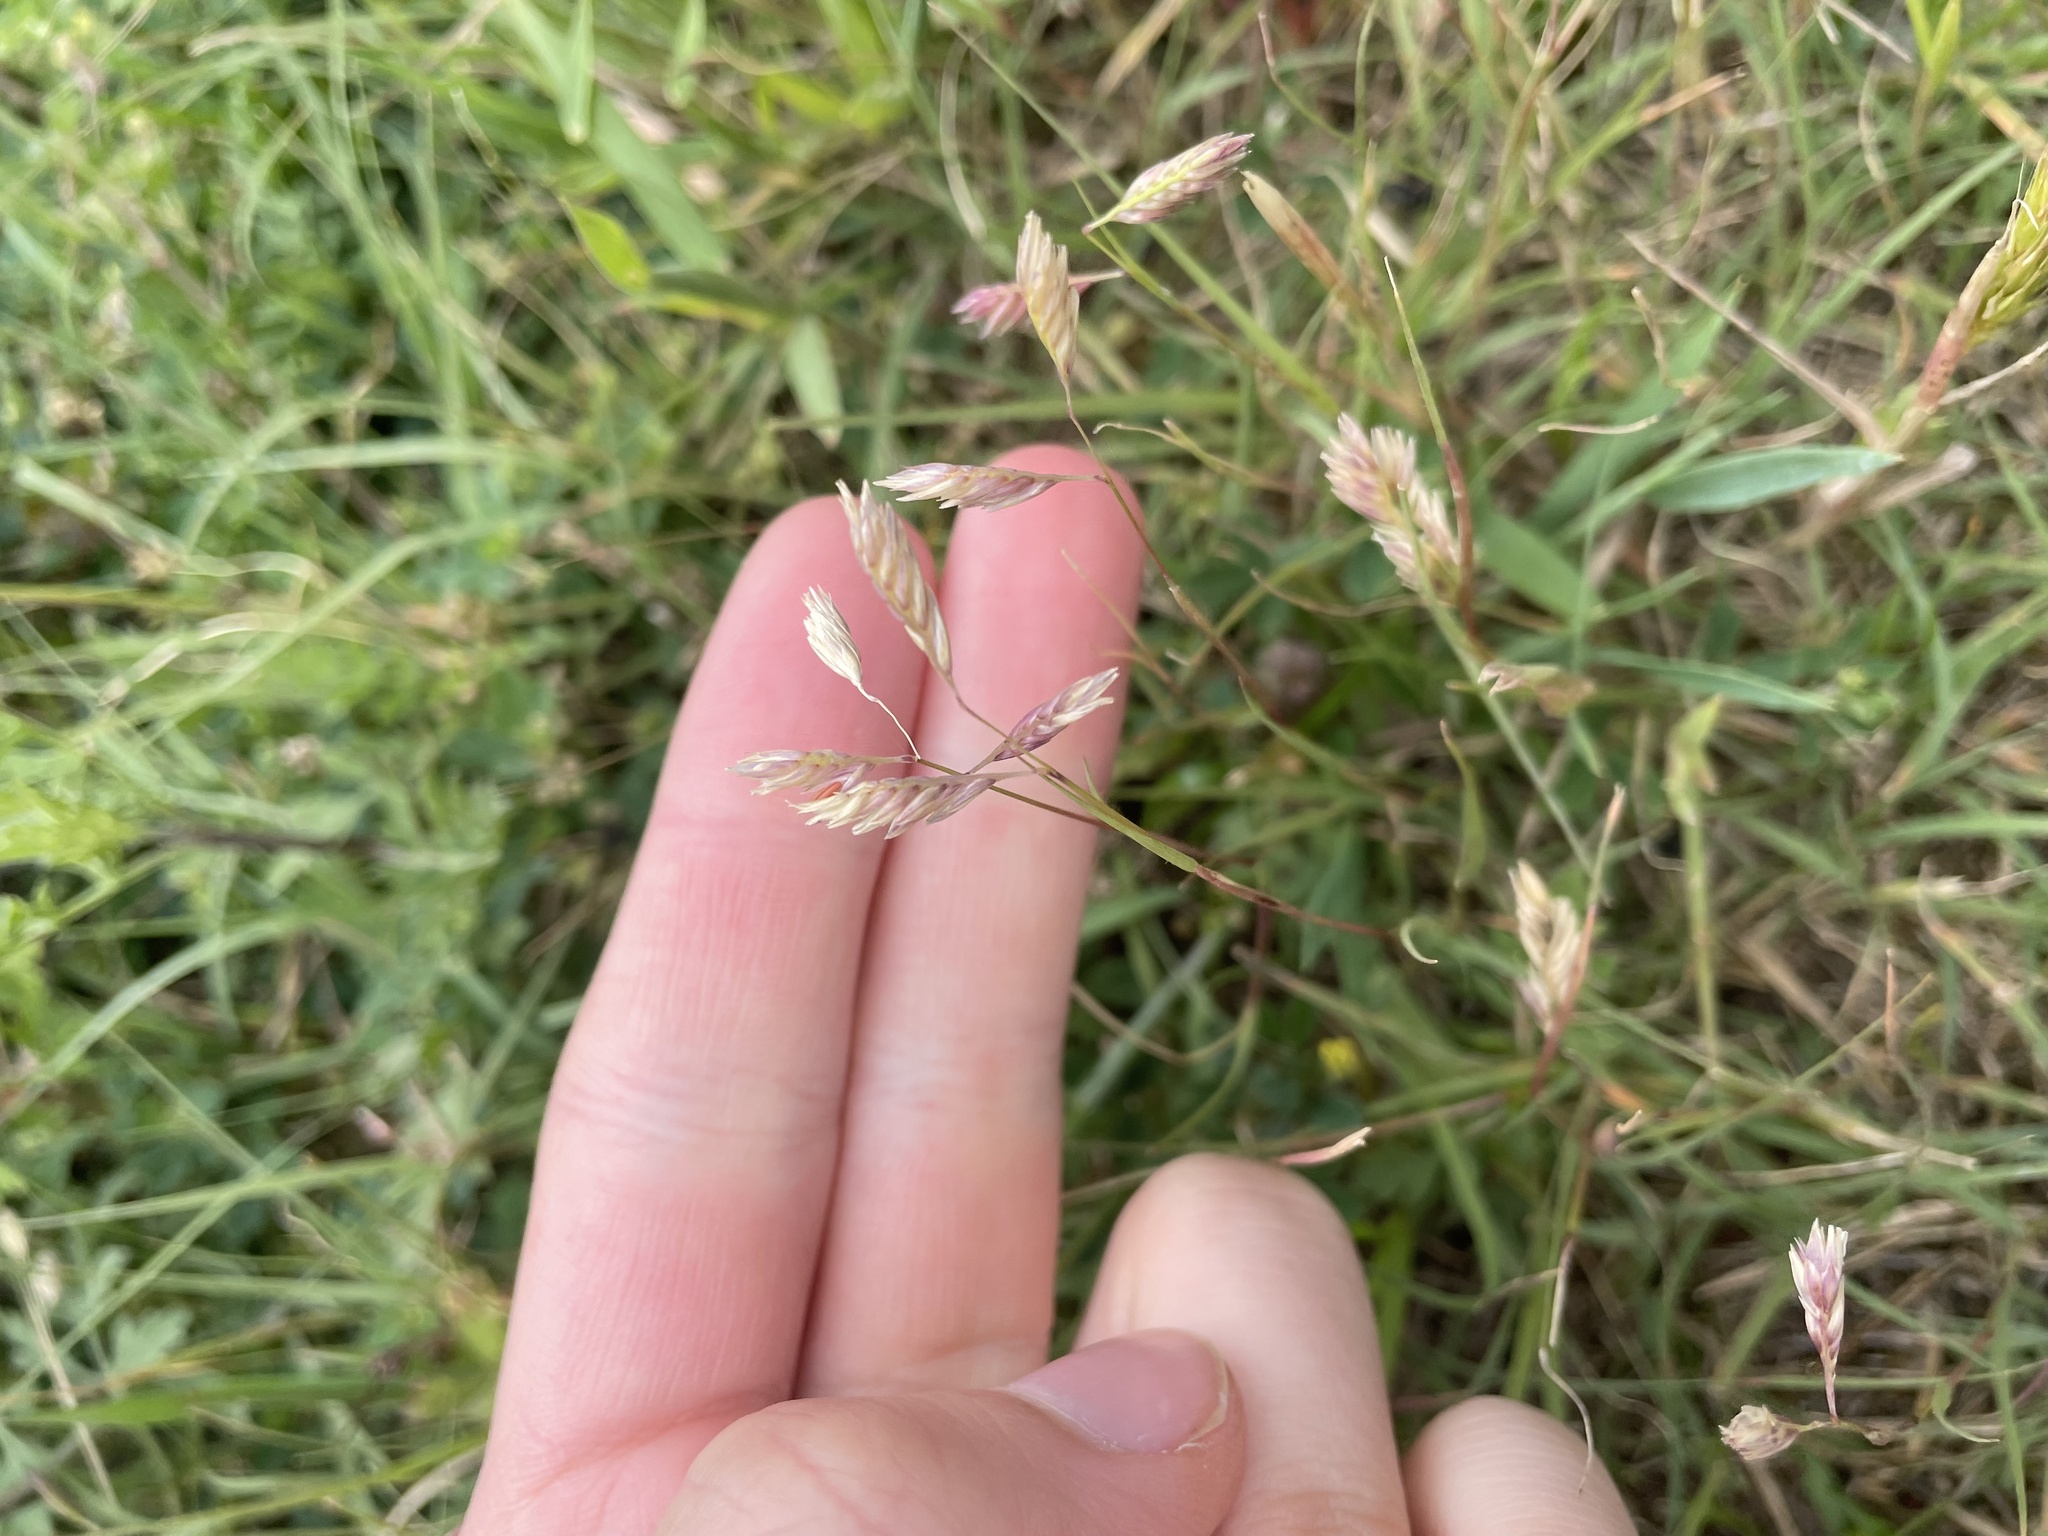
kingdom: Plantae
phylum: Tracheophyta
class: Liliopsida
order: Poales
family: Poaceae
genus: Bouteloua
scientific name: Bouteloua dactyloides
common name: Buffalo grass
